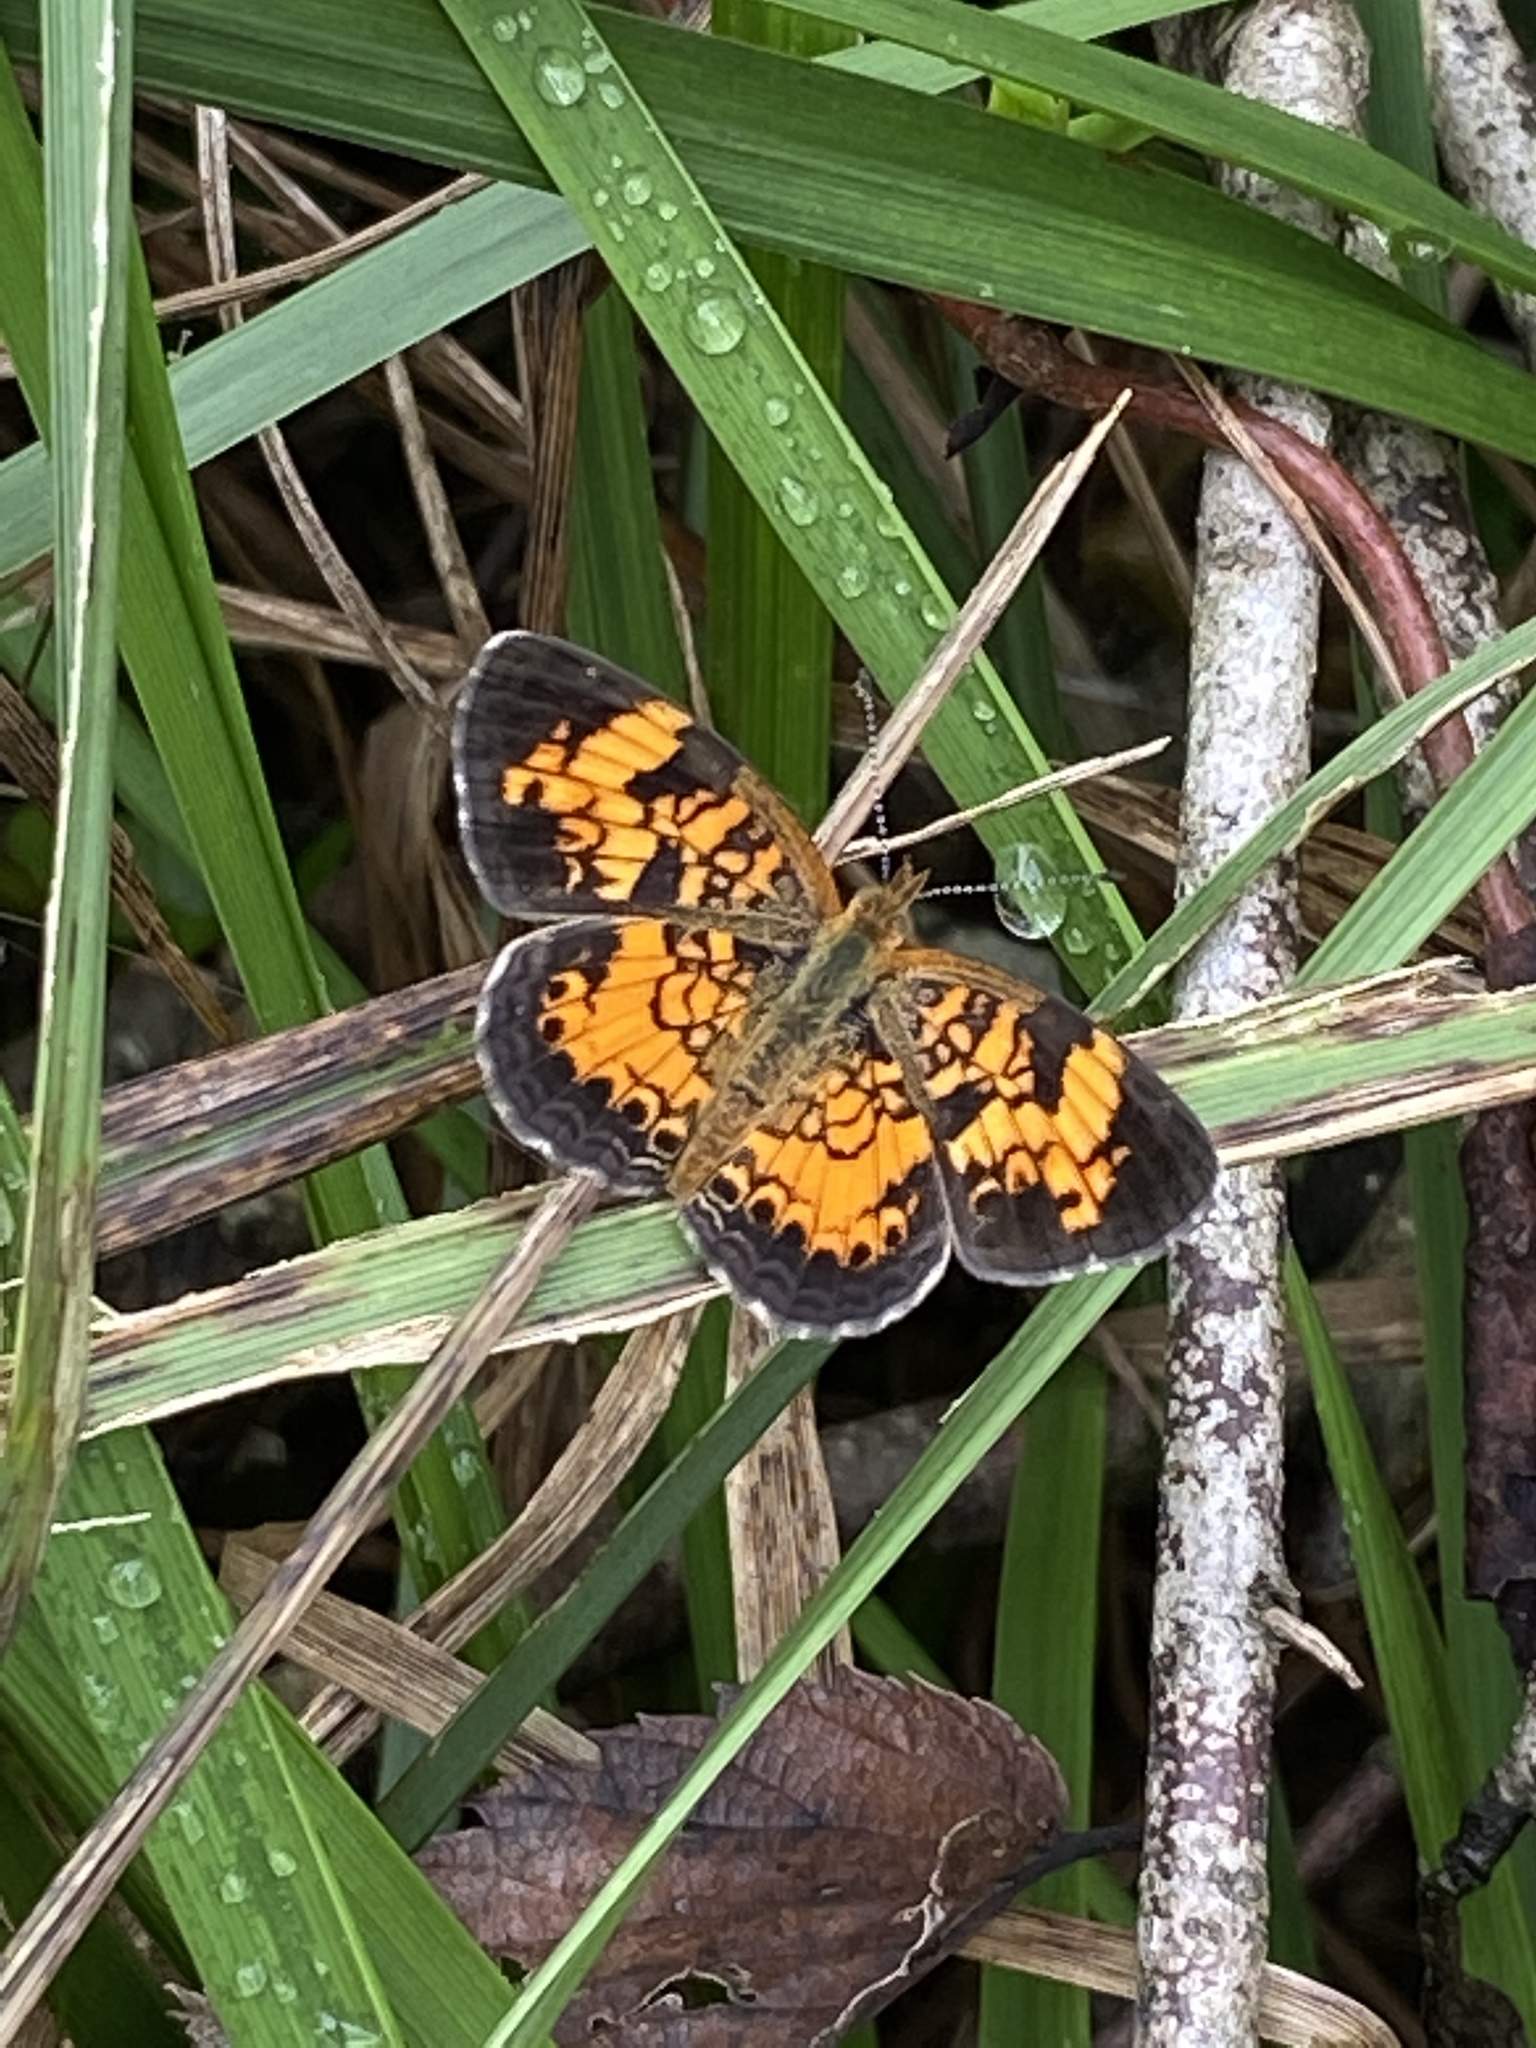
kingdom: Animalia
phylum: Arthropoda
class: Insecta
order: Lepidoptera
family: Nymphalidae
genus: Phyciodes
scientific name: Phyciodes tharos
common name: Pearl crescent
